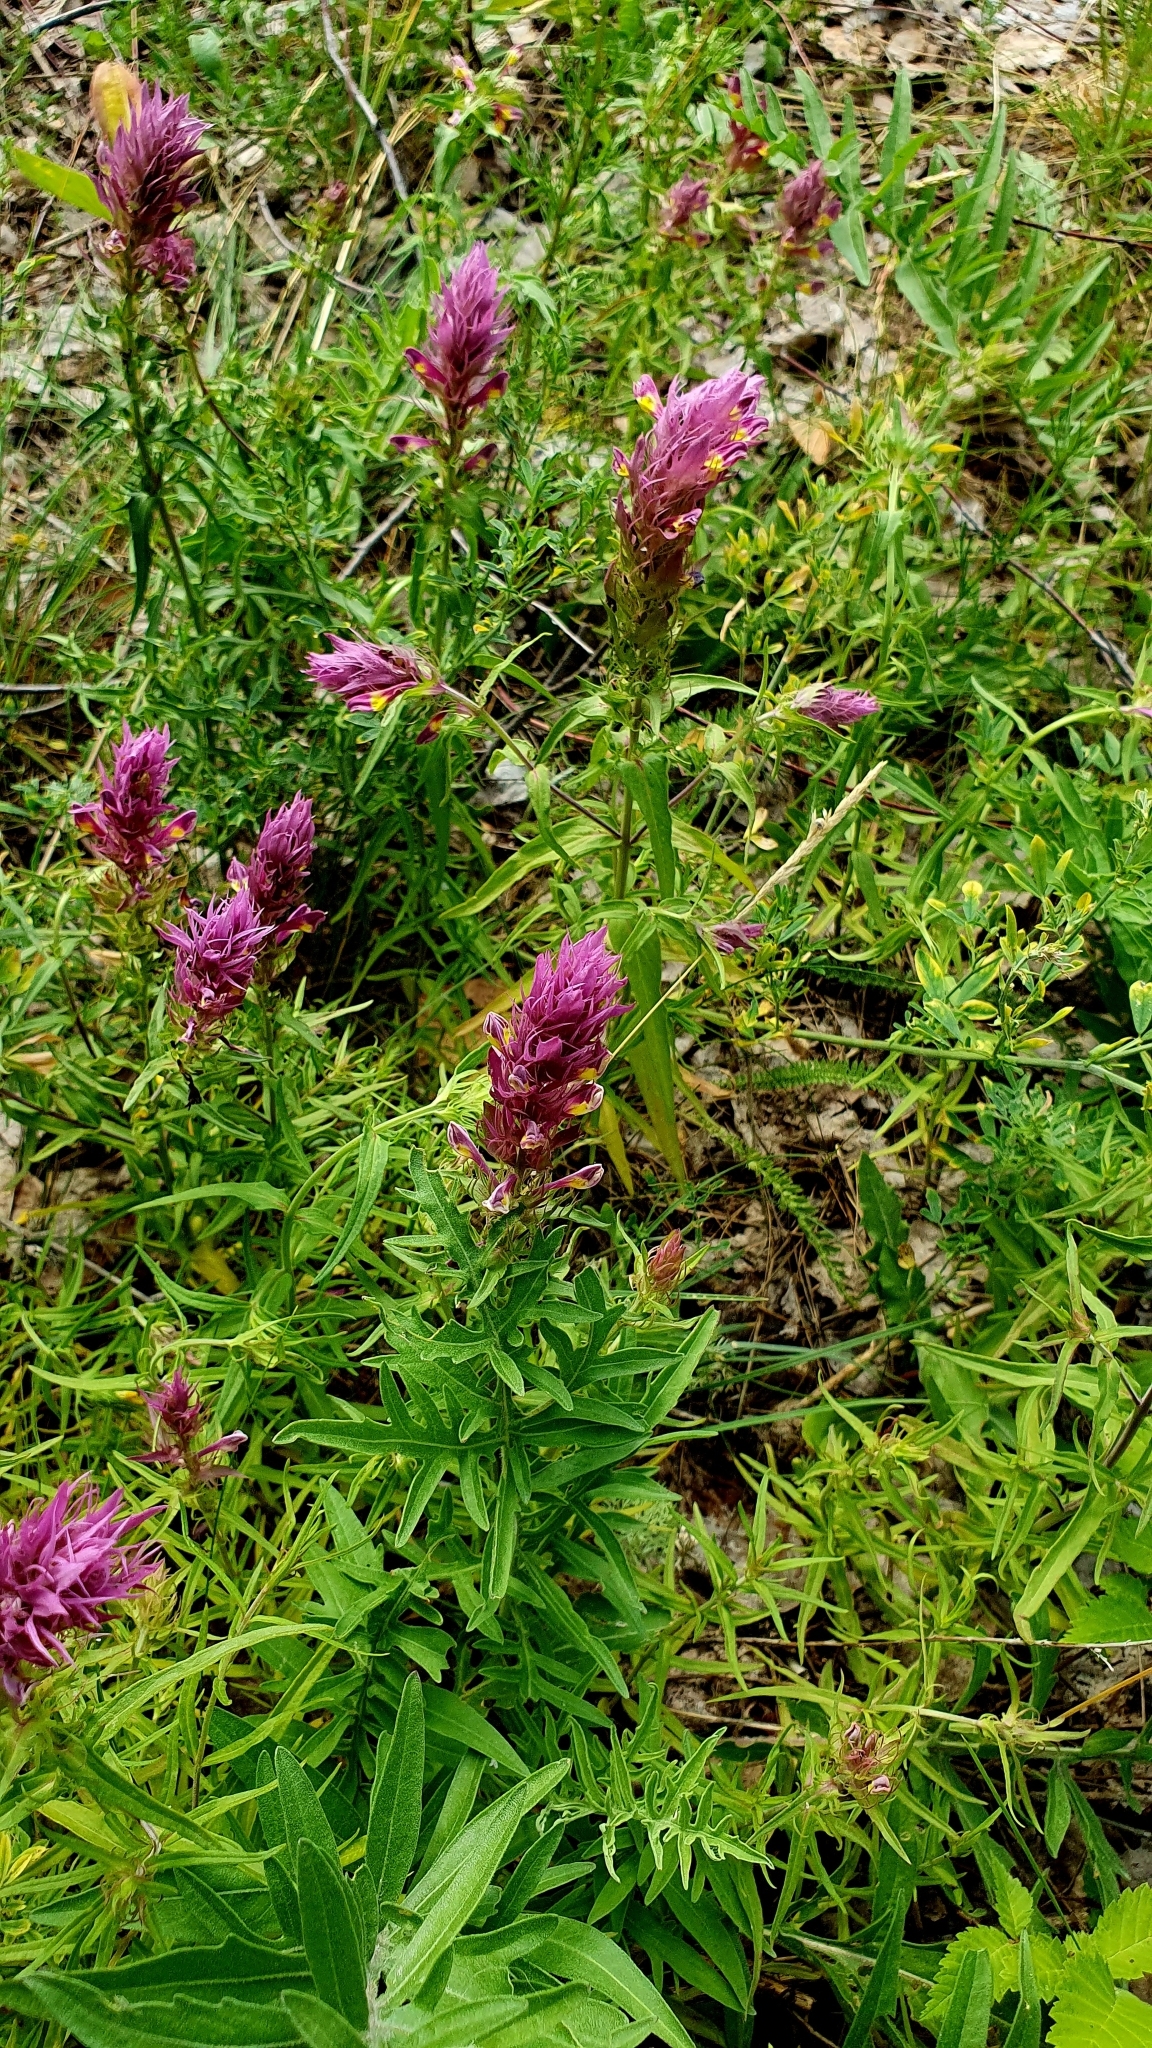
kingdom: Plantae
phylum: Tracheophyta
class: Magnoliopsida
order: Lamiales
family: Orobanchaceae
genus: Melampyrum
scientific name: Melampyrum arvense
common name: Field cow-wheat
